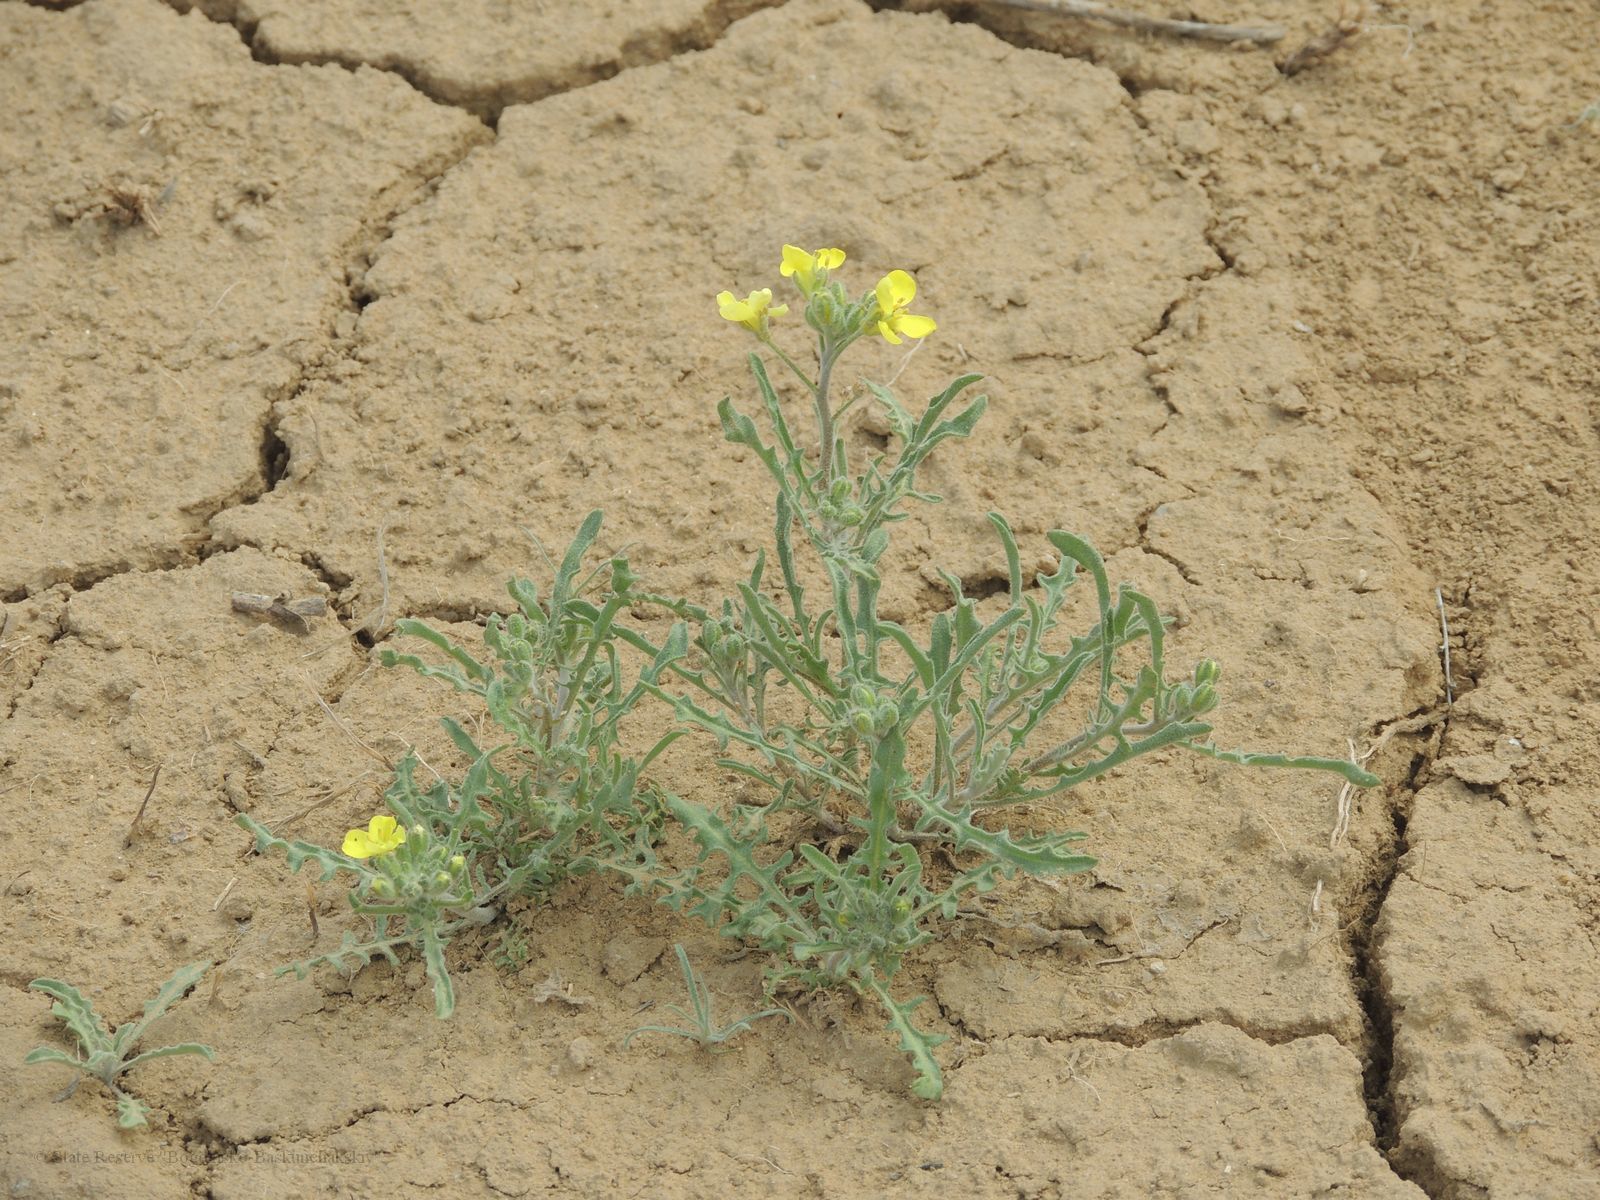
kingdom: Plantae
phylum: Tracheophyta
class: Magnoliopsida
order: Brassicales
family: Brassicaceae
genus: Sterigmostemum
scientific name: Sterigmostemum caspicum
